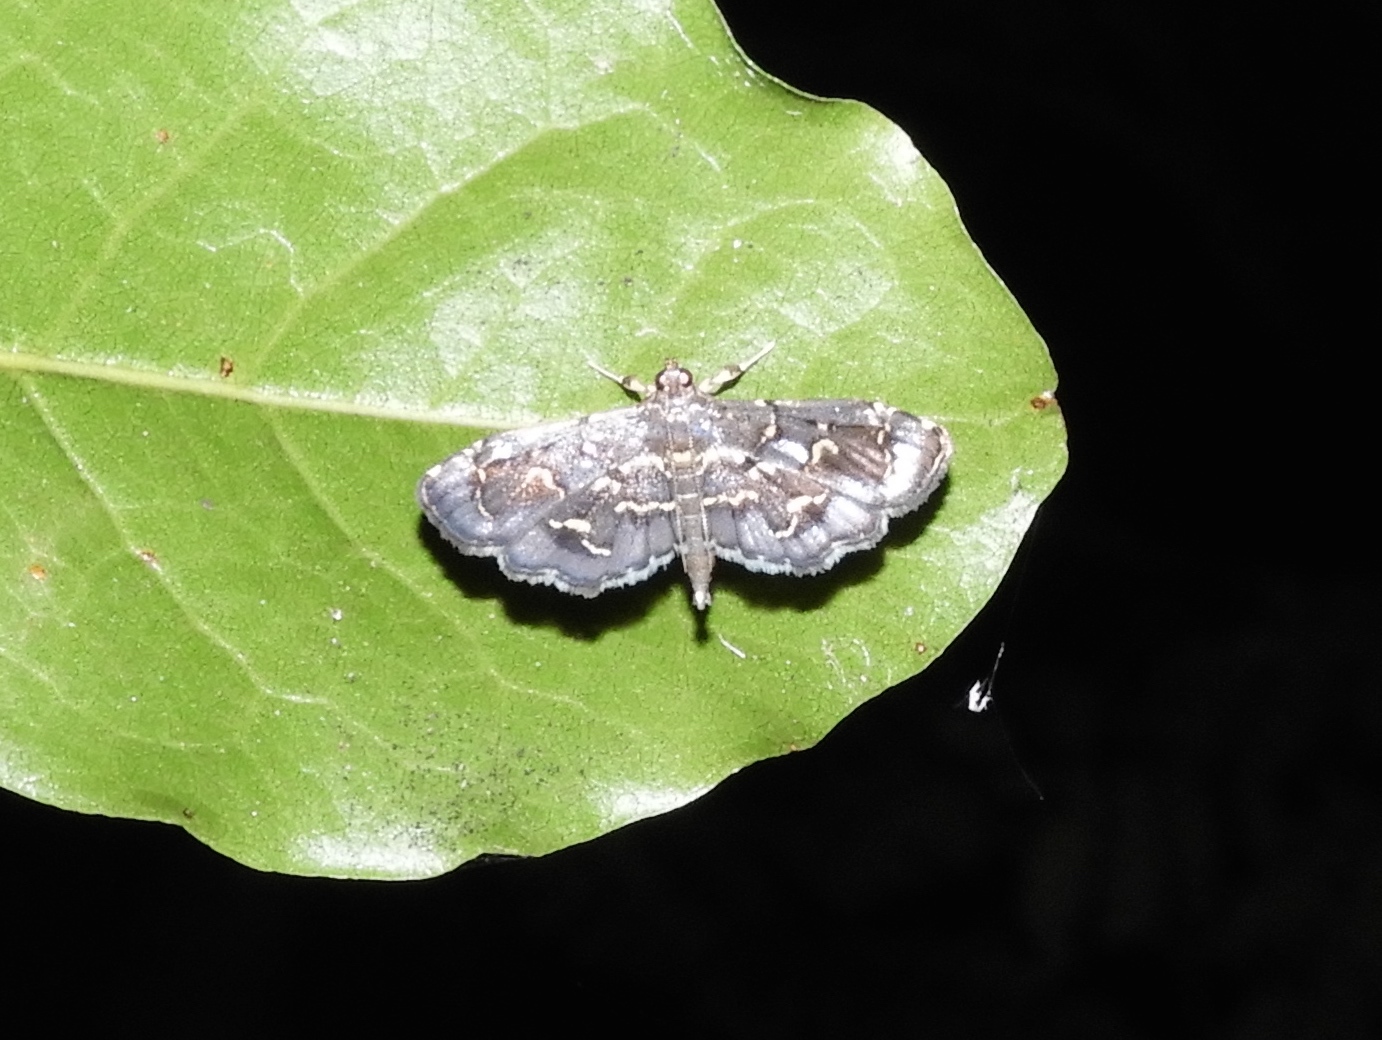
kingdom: Animalia
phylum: Arthropoda
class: Insecta
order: Lepidoptera
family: Crambidae
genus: Eurrhyparodes
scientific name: Eurrhyparodes
